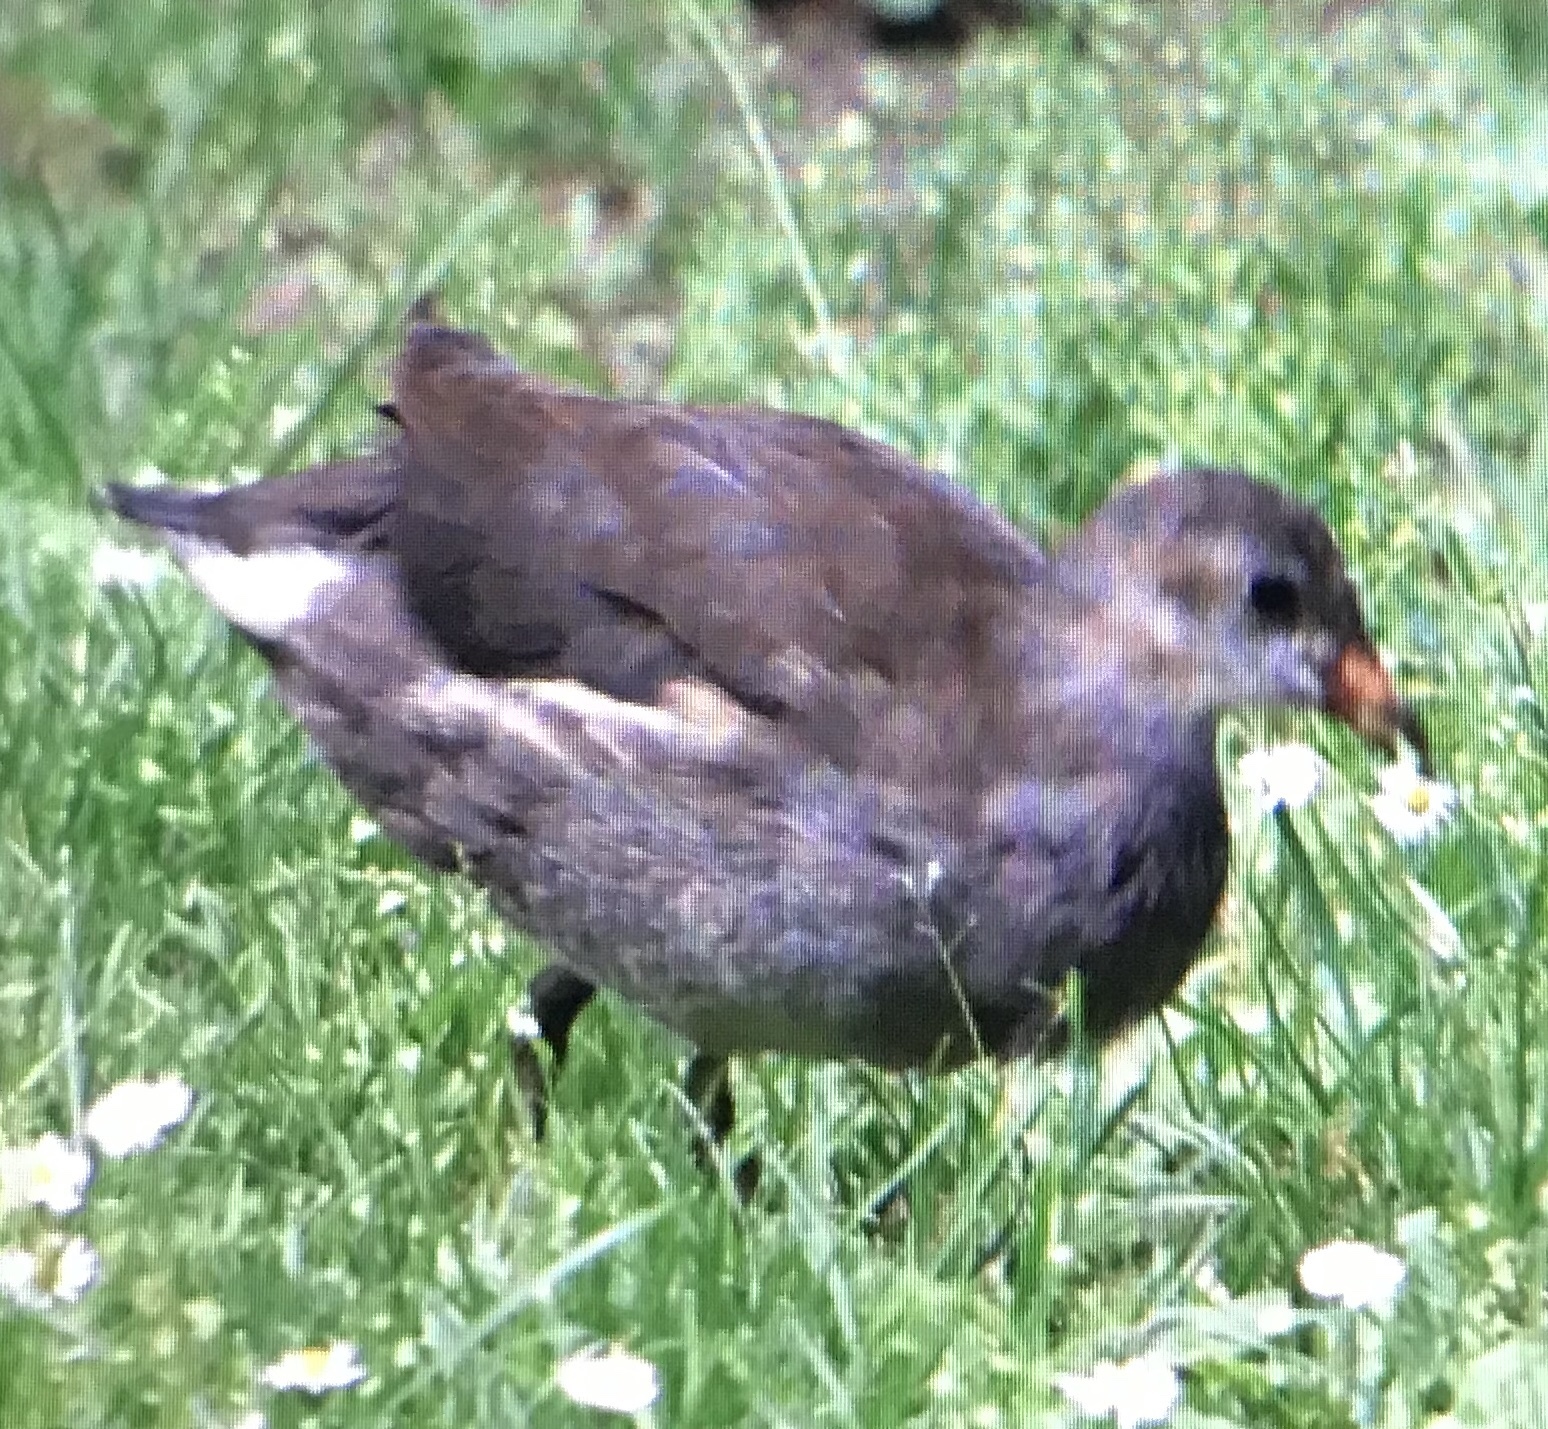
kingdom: Animalia
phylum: Chordata
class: Aves
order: Gruiformes
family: Rallidae
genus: Gallinula
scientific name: Gallinula chloropus
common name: Common moorhen
